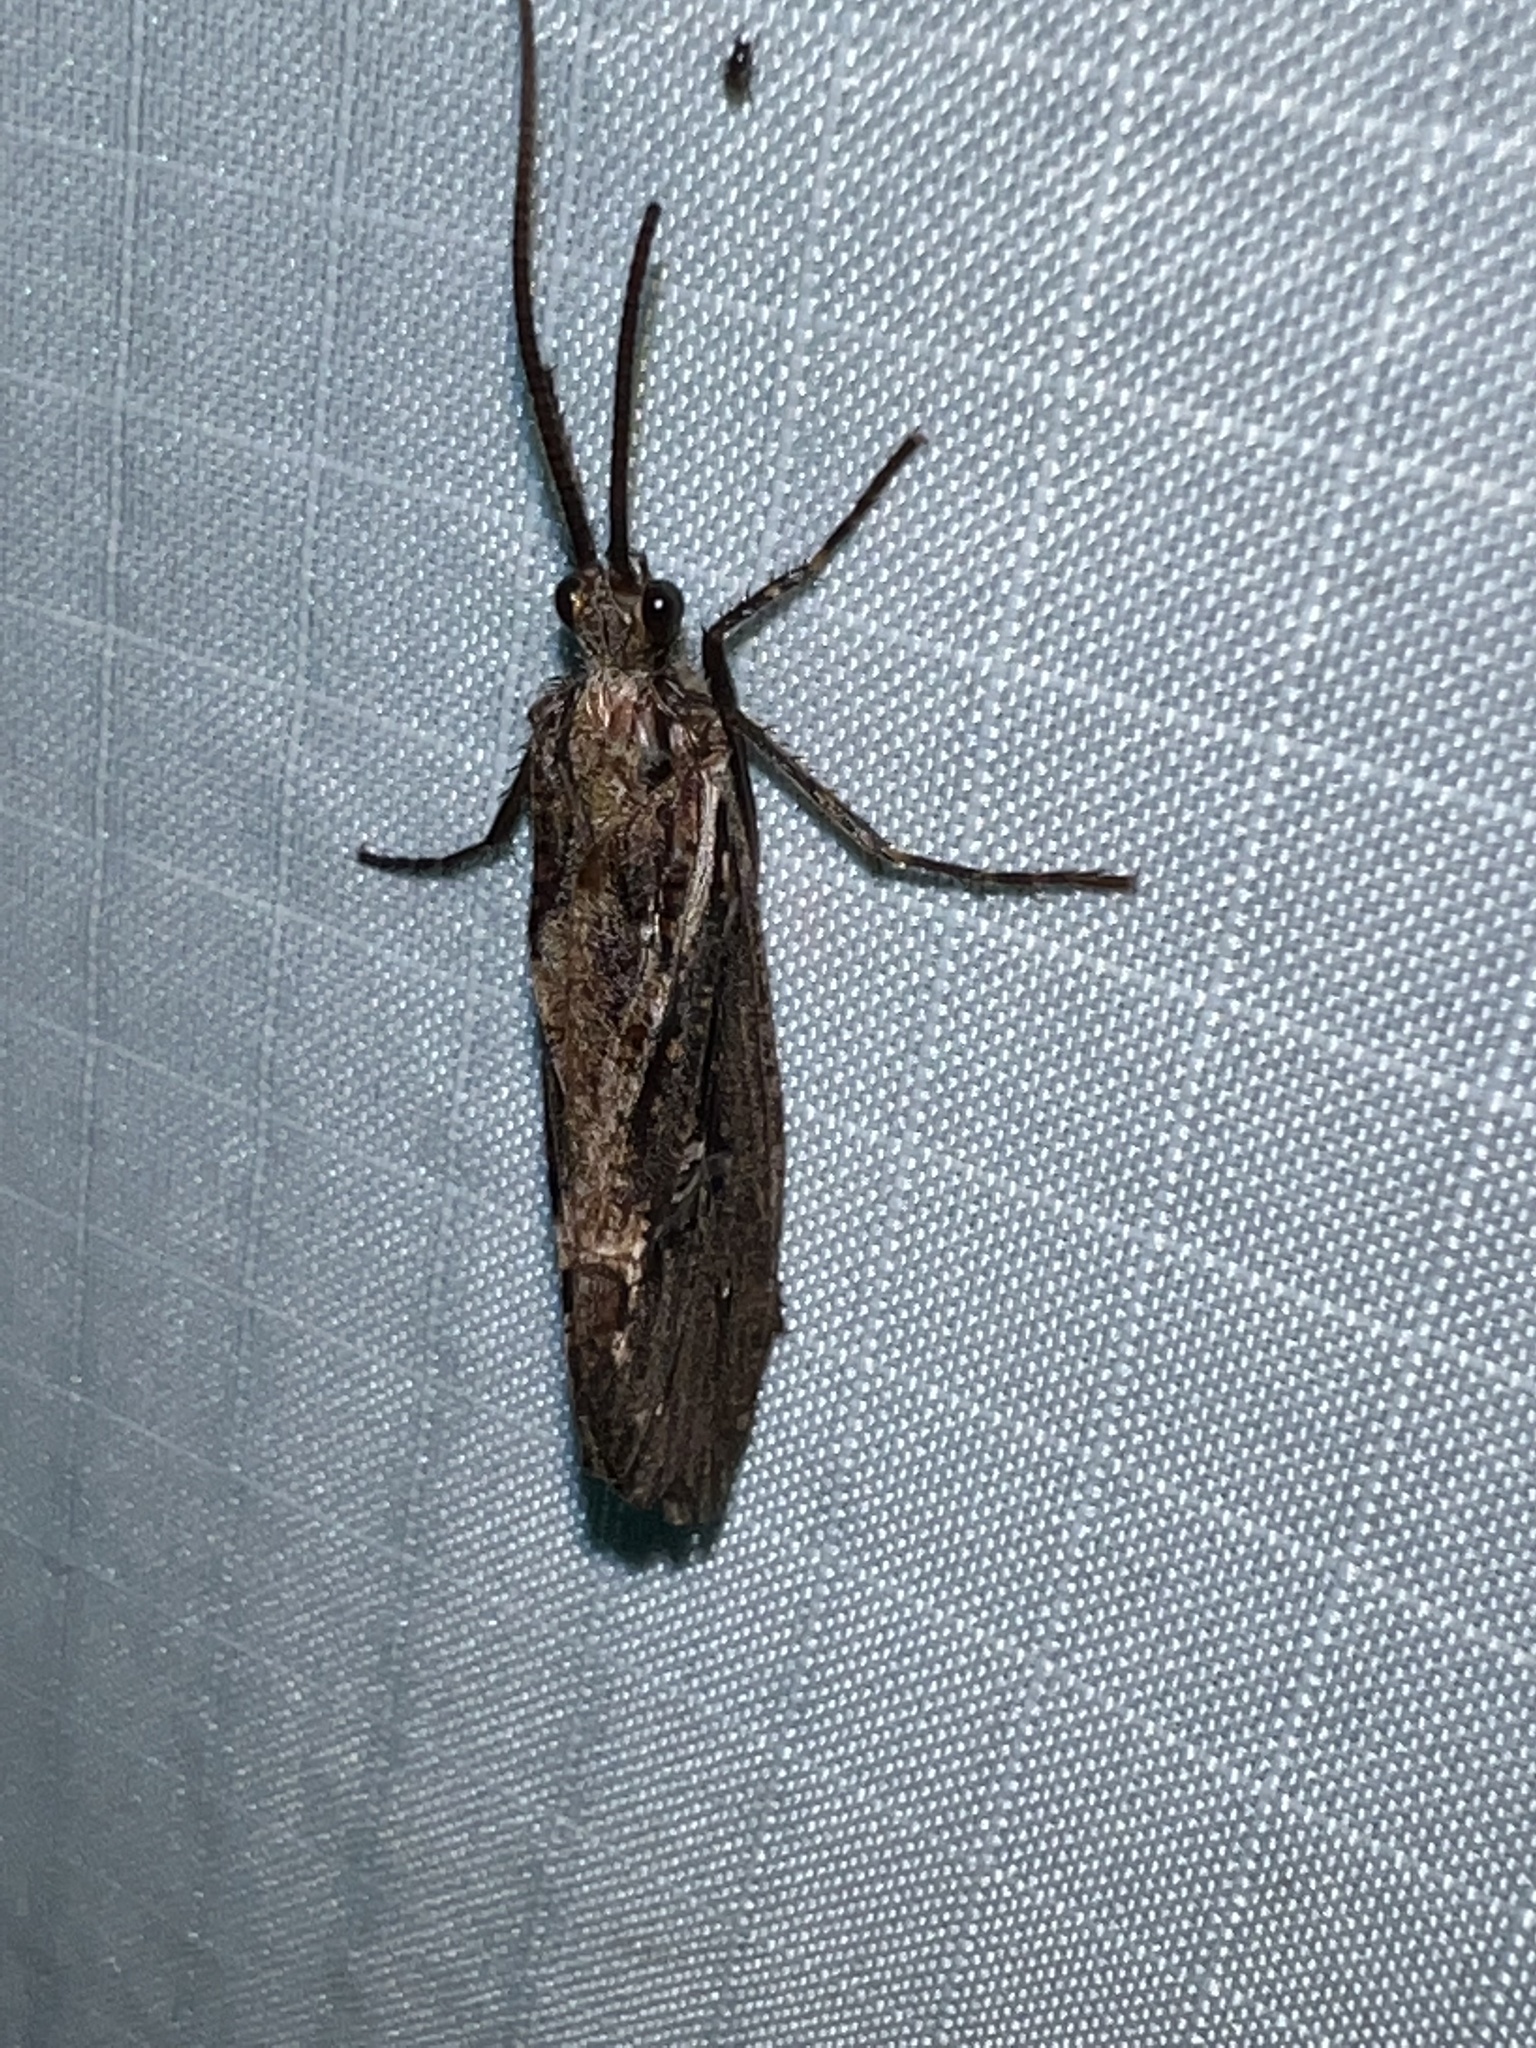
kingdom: Animalia
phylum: Arthropoda
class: Insecta
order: Trichoptera
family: Phryganeidae
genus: Phryganea
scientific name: Phryganea sayi
